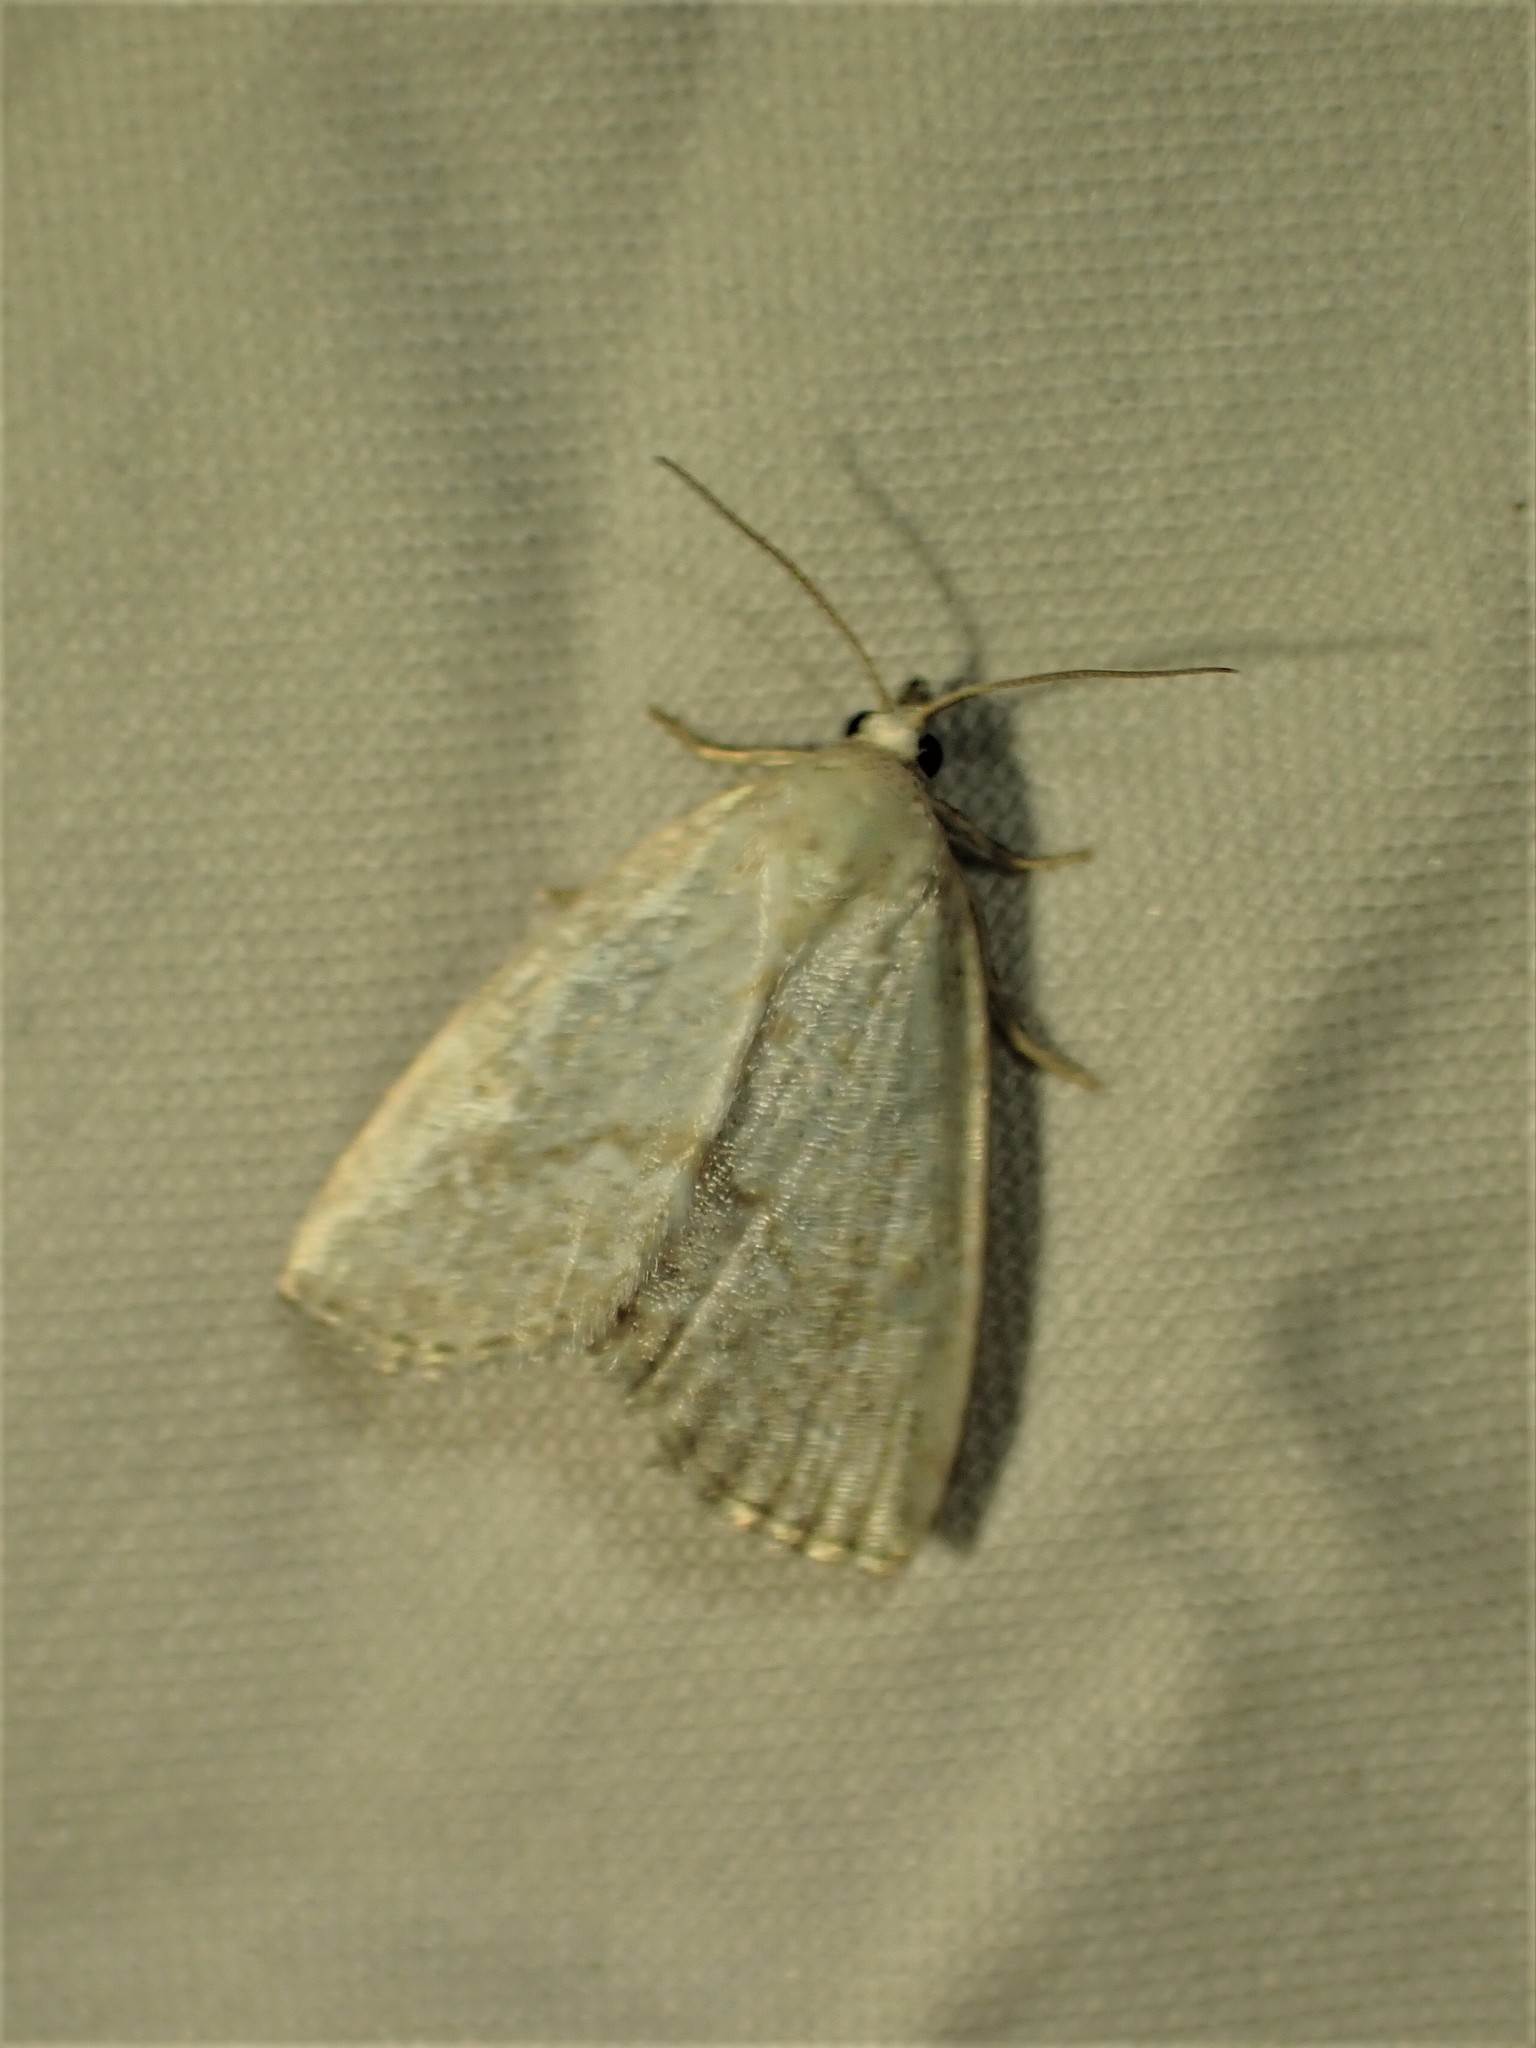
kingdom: Animalia
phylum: Arthropoda
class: Insecta
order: Lepidoptera
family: Noctuidae
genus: Protodeltote
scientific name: Protodeltote albidula
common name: Pale glyph
